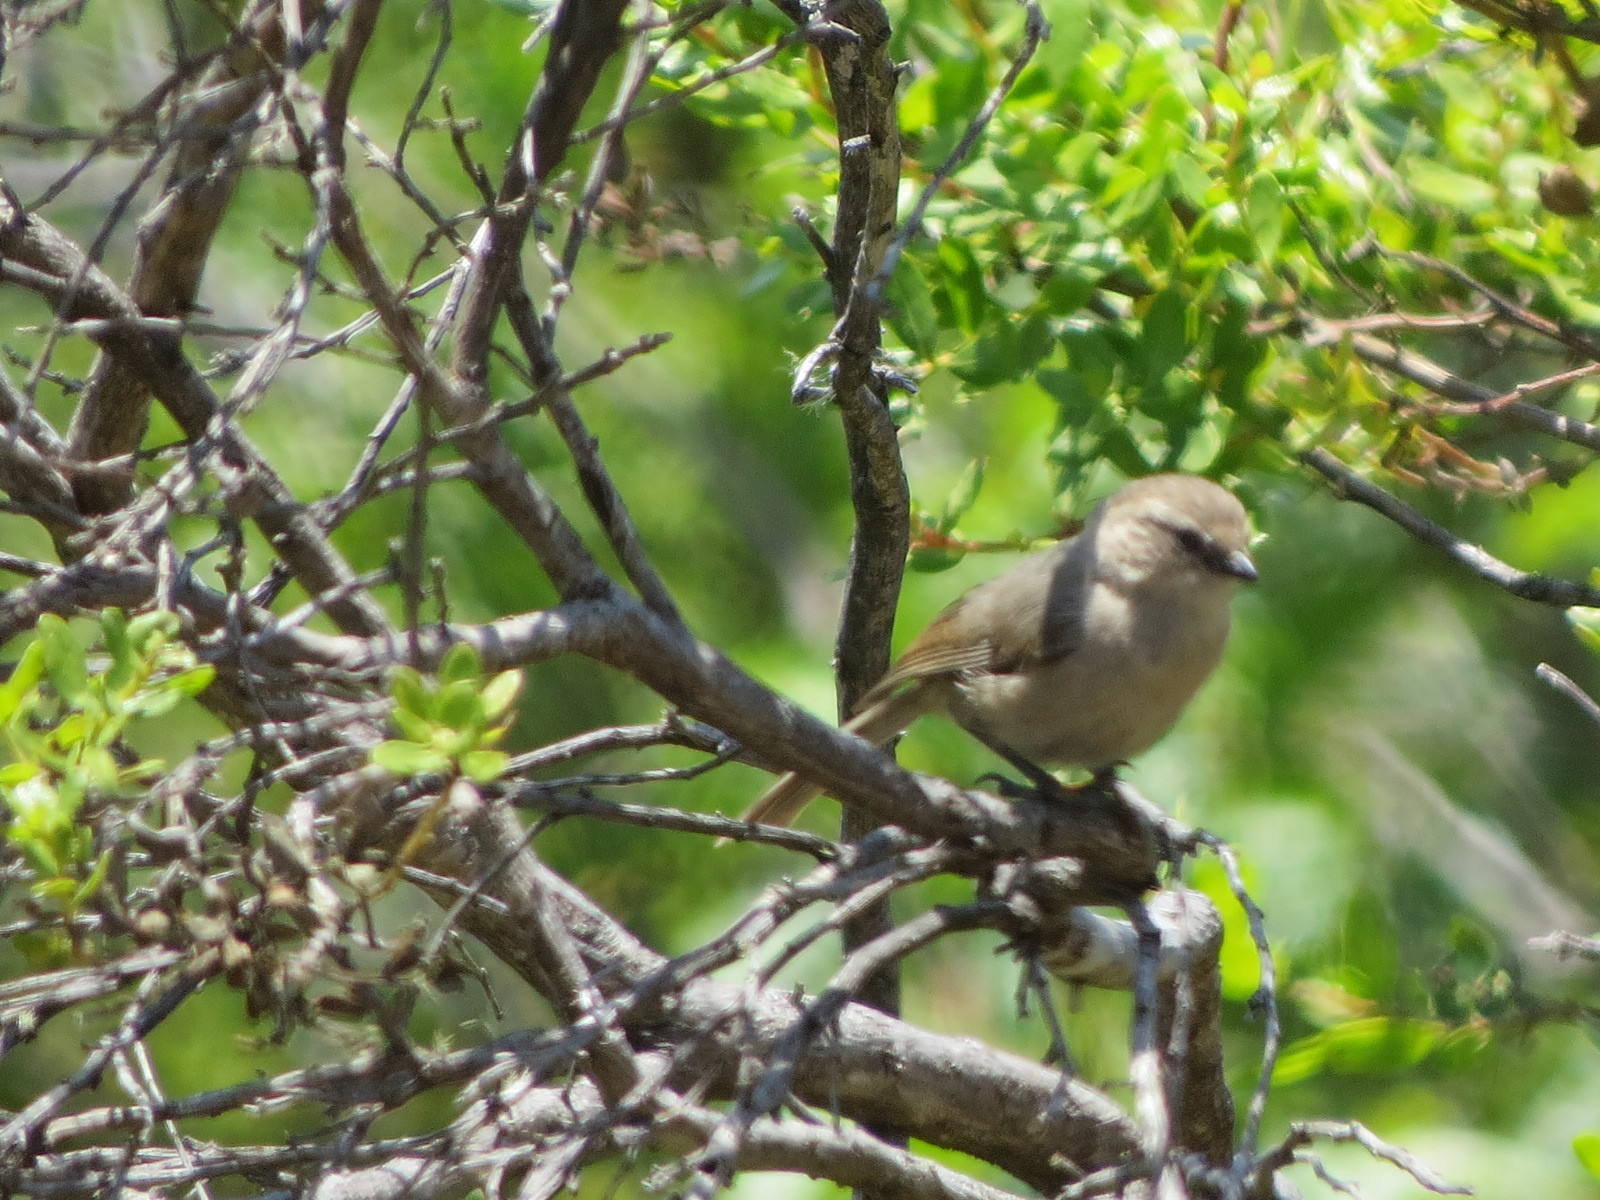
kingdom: Animalia
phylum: Chordata
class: Aves
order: Passeriformes
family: Aegithalidae
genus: Psaltriparus
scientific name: Psaltriparus minimus
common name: American bushtit
